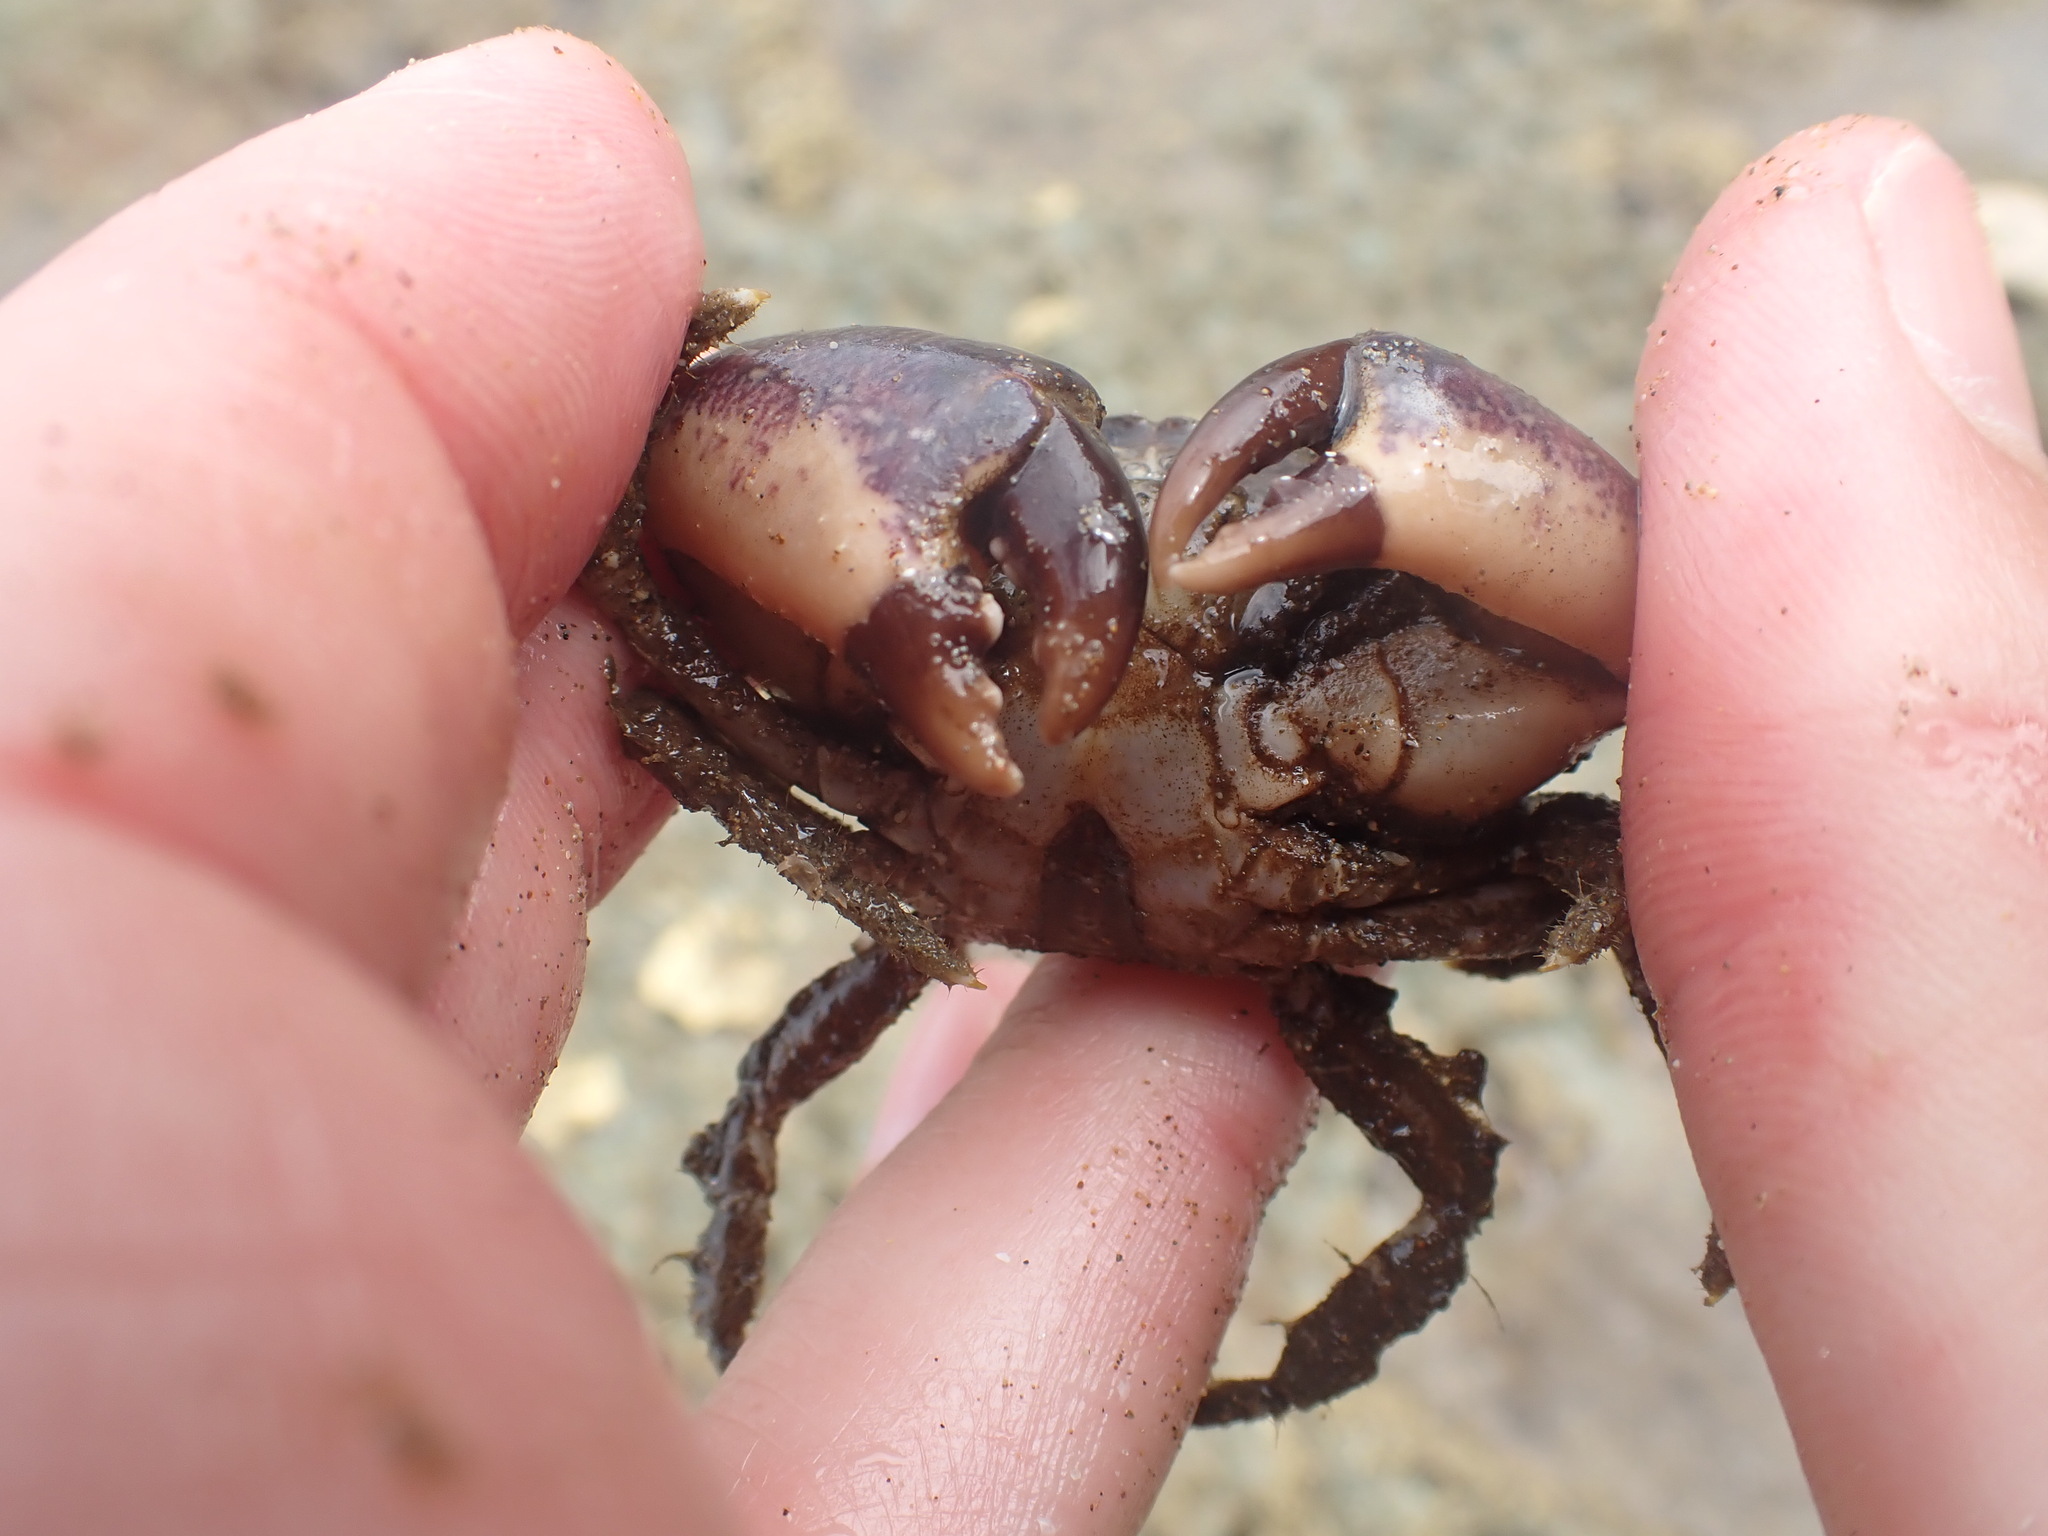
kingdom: Animalia
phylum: Arthropoda
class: Malacostraca
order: Decapoda
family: Pilumnidae
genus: Pilumnopeus
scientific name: Pilumnopeus serratifrons
